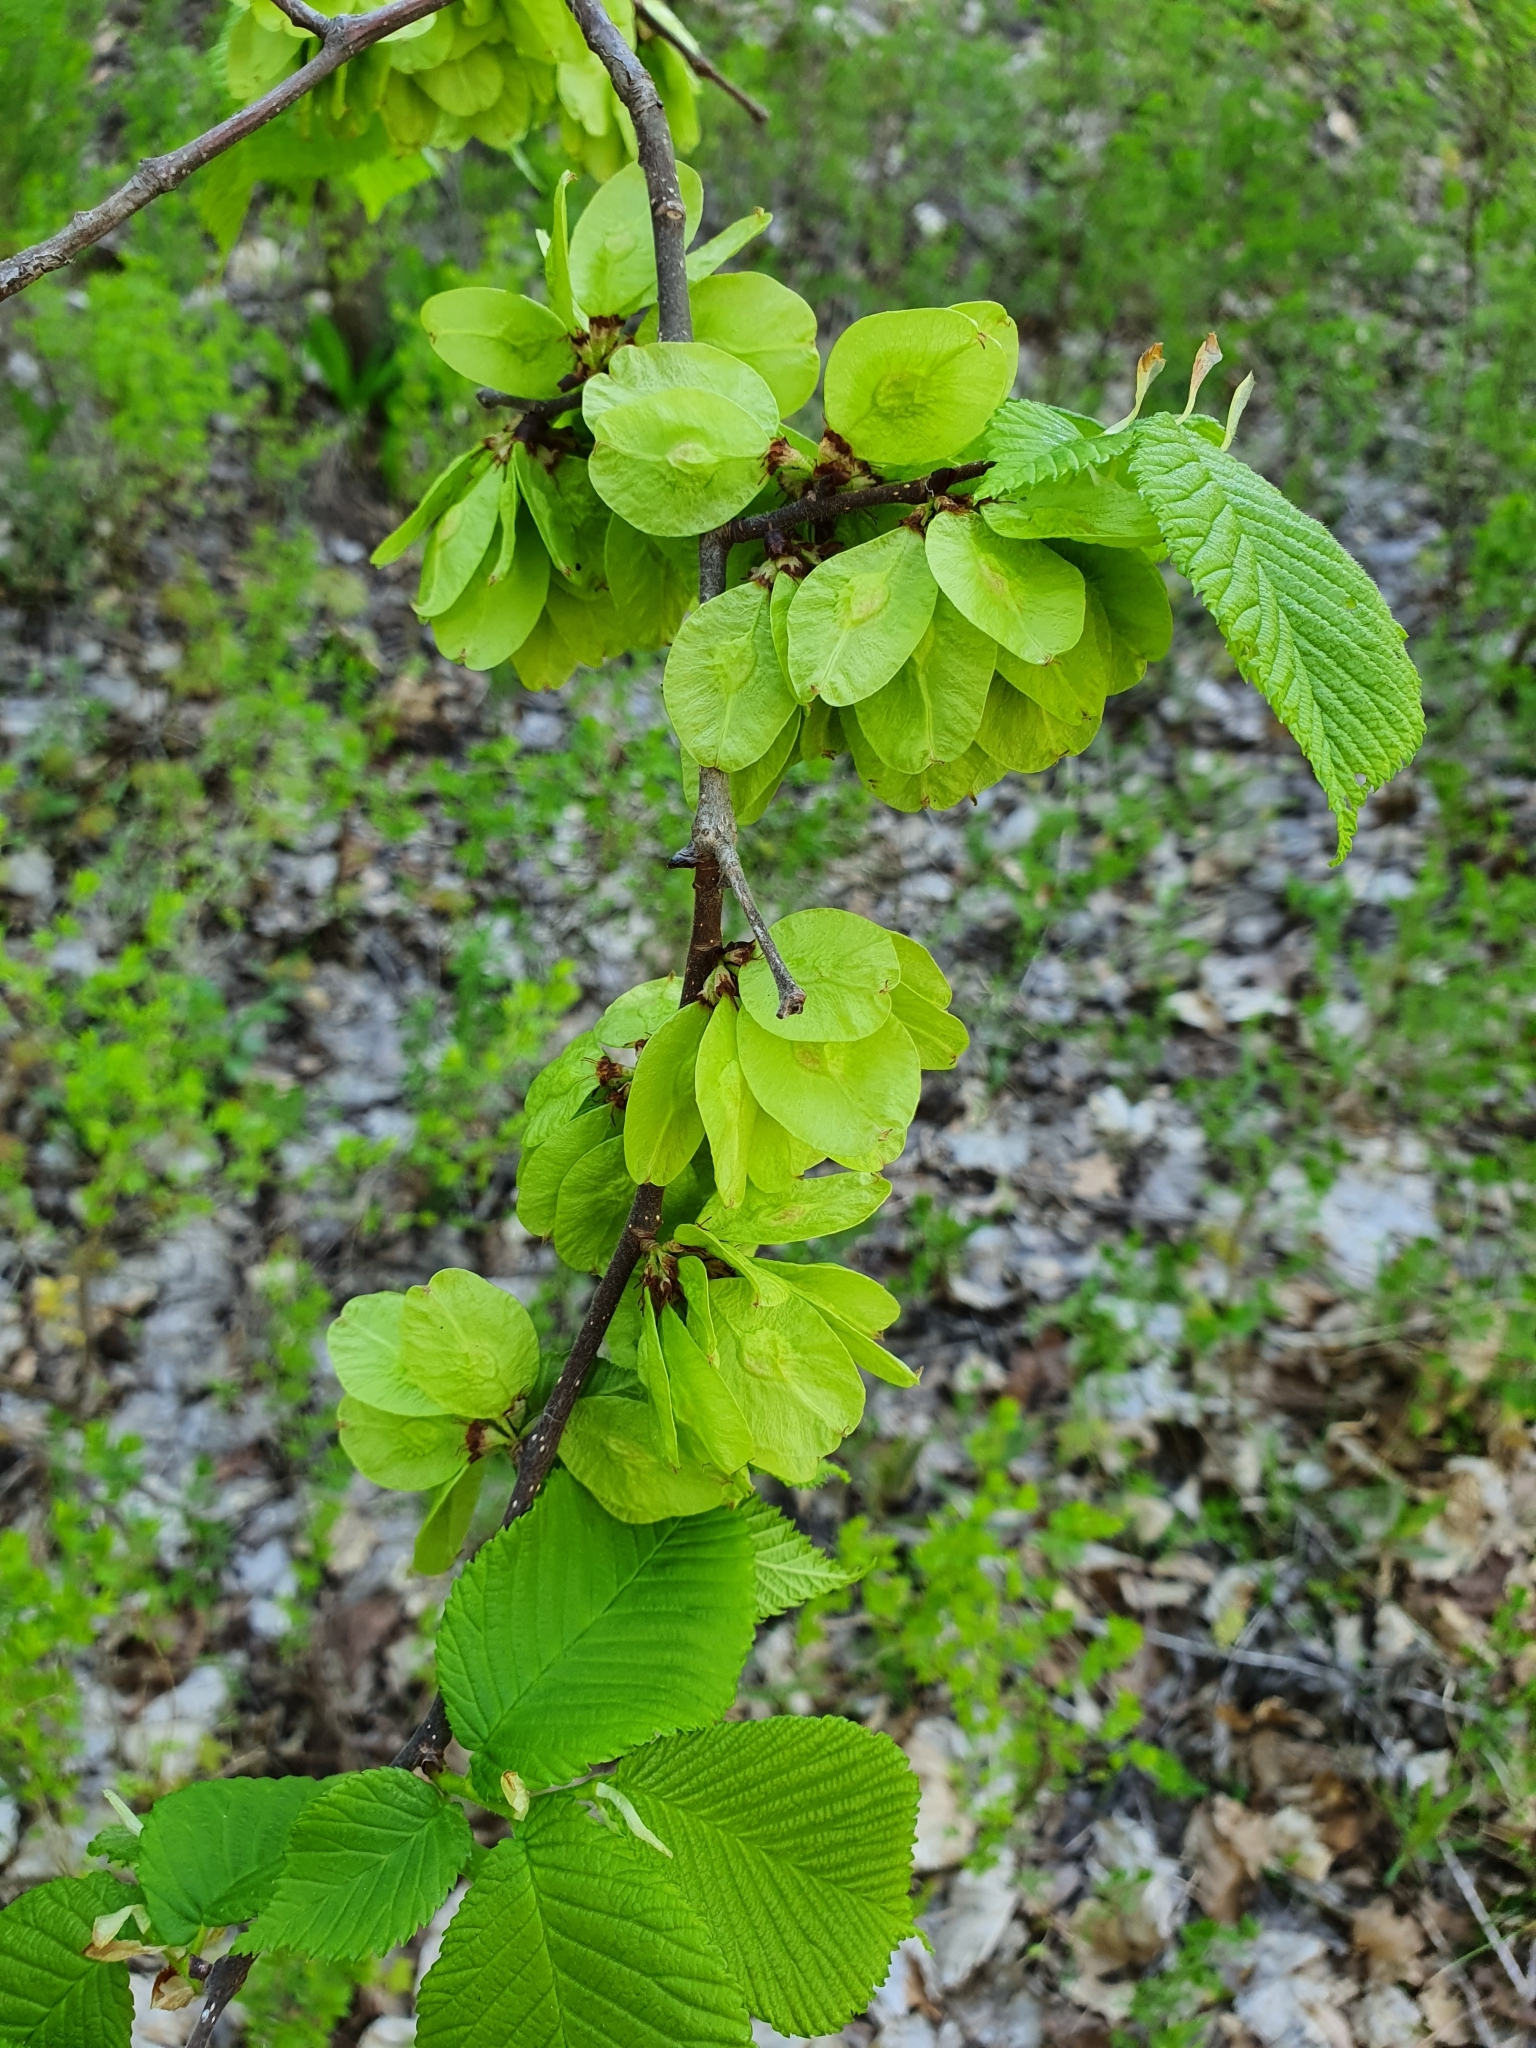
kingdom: Plantae
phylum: Tracheophyta
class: Magnoliopsida
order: Rosales
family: Ulmaceae
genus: Ulmus
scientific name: Ulmus glabra
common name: Wych elm
